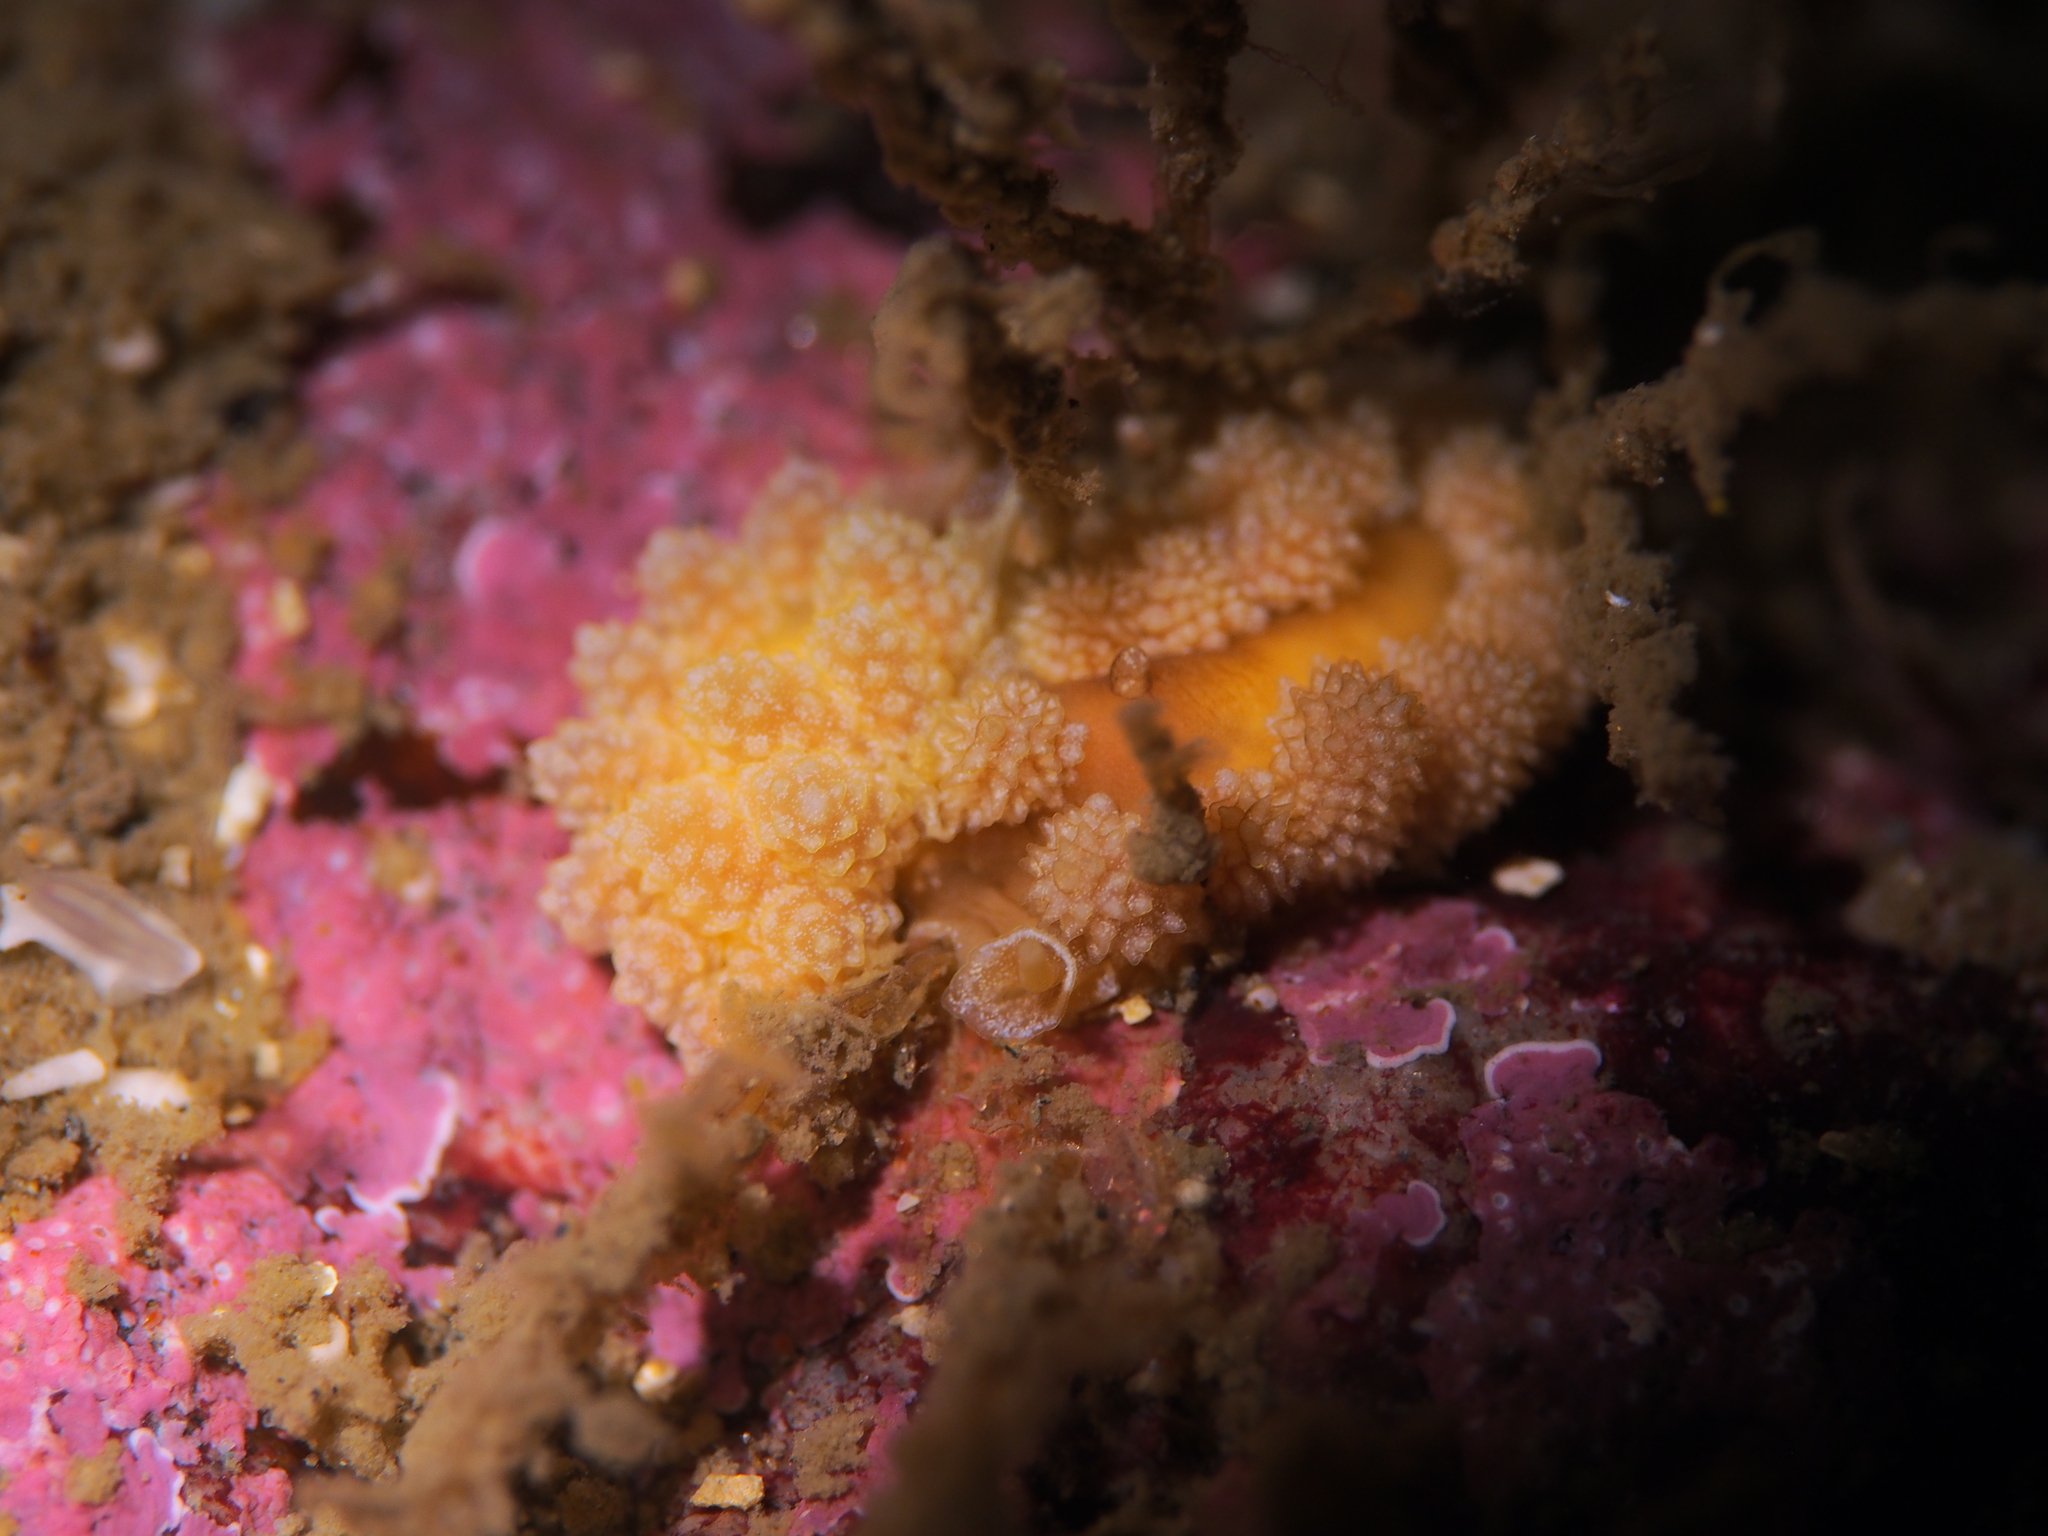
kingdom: Animalia
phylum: Mollusca
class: Gastropoda
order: Nudibranchia
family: Dotidae
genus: Doto
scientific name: Doto fragilis
